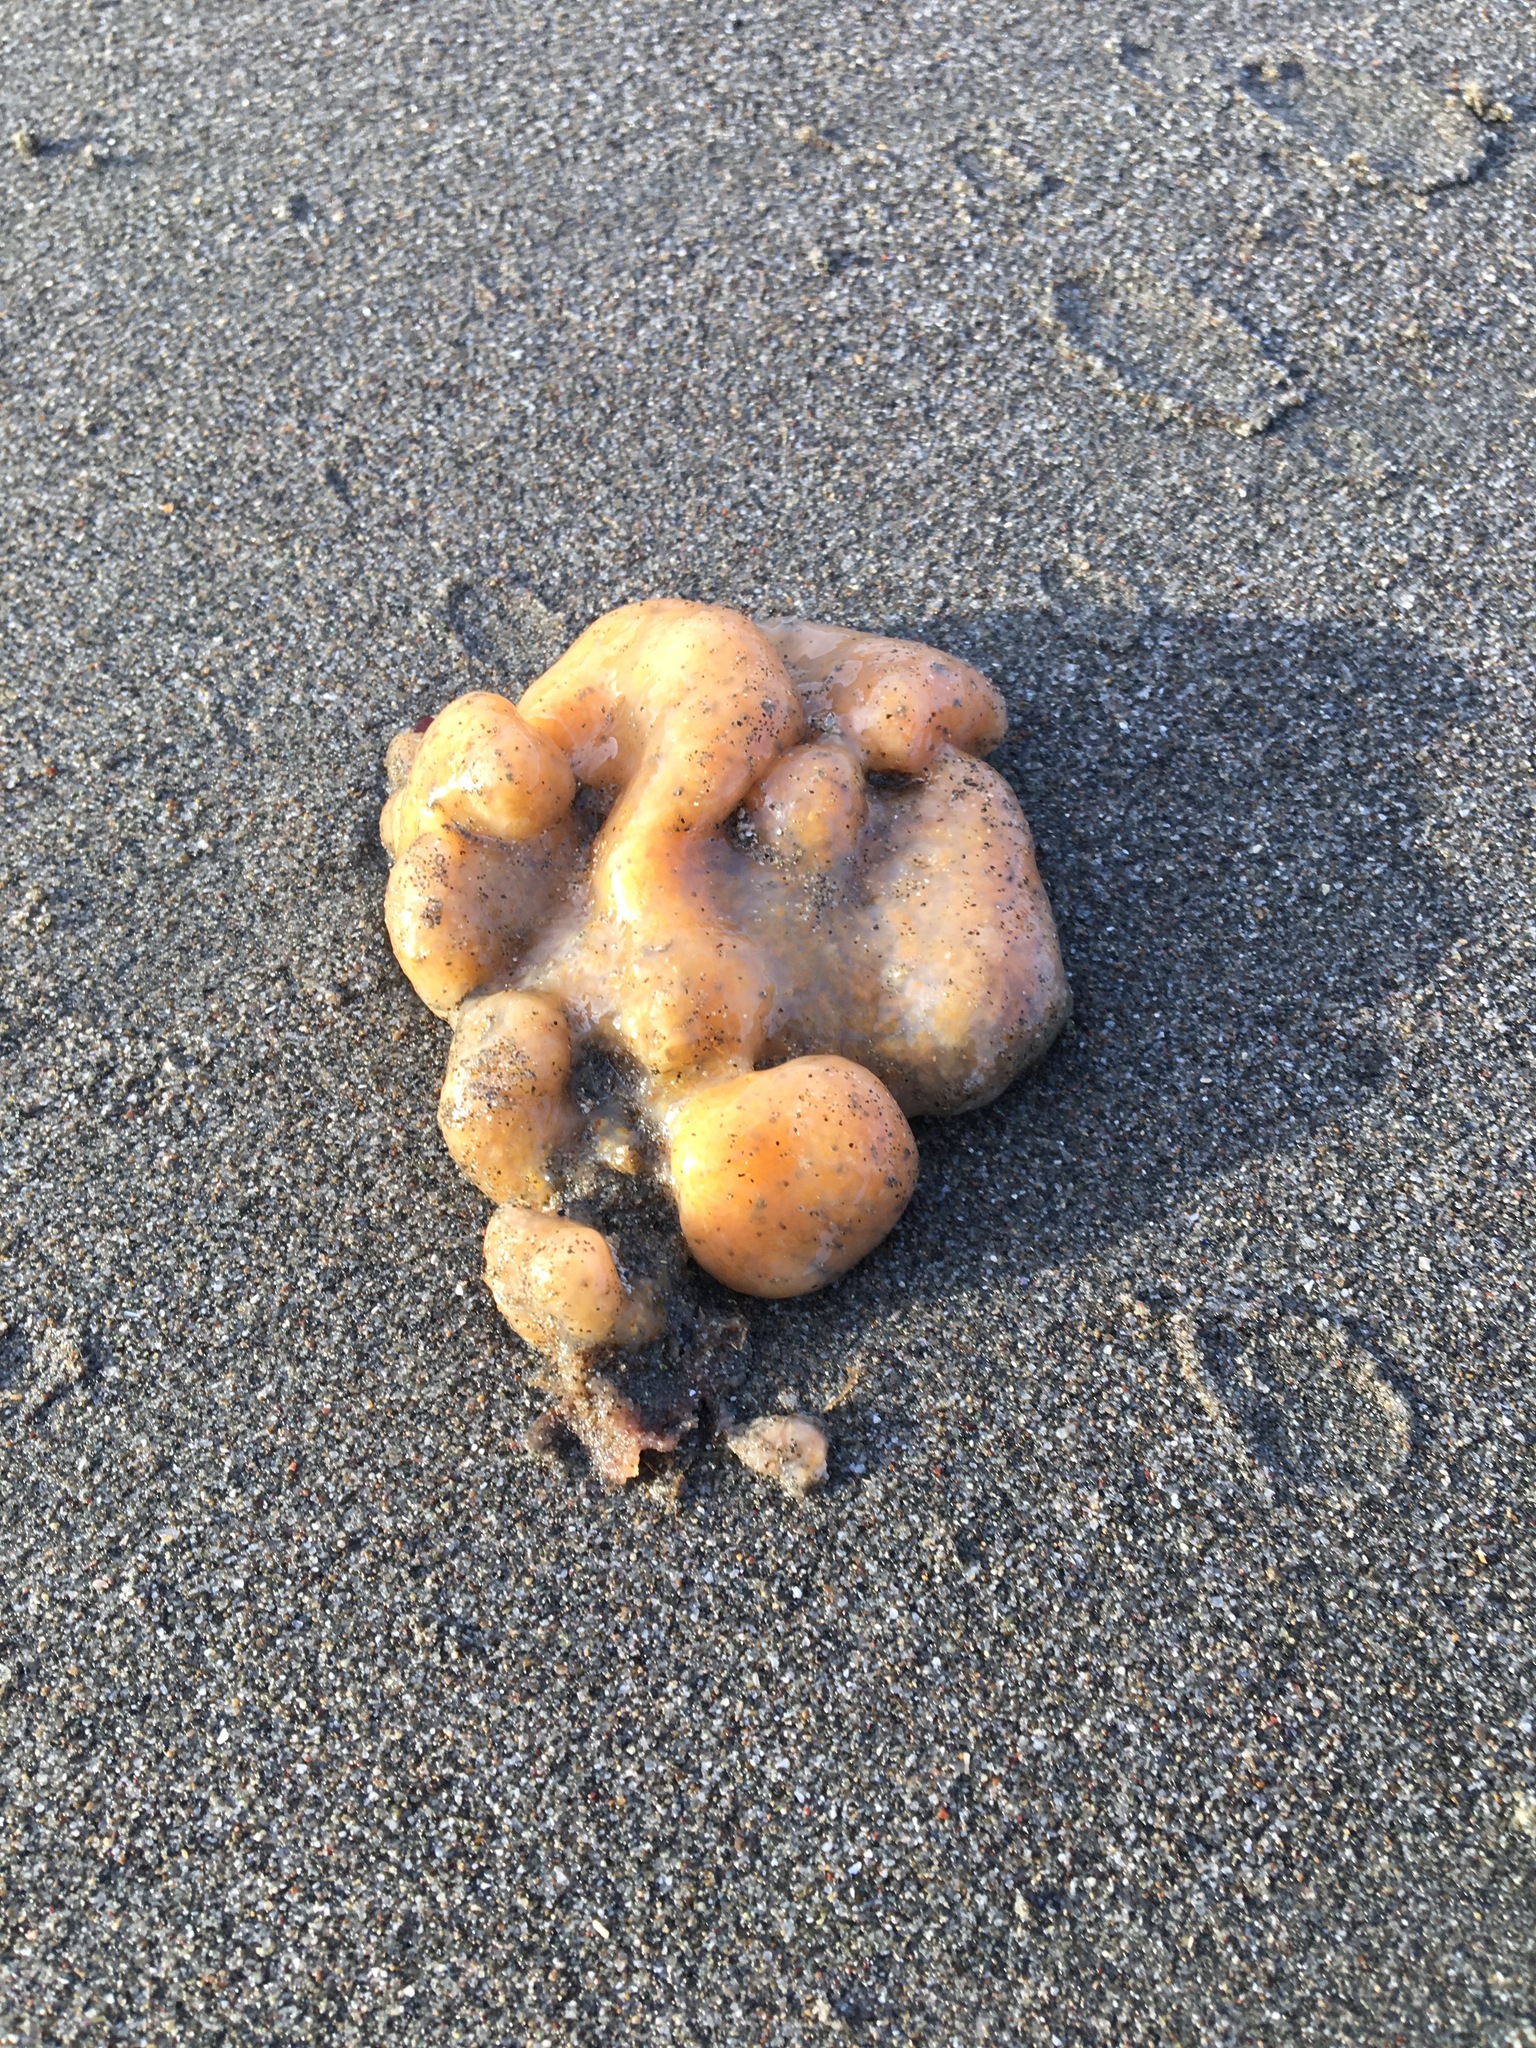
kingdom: Animalia
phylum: Chordata
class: Ascidiacea
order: Aplousobranchia
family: Polyclinidae
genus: Aplidium
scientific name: Aplidium californicum
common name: Sea pork
